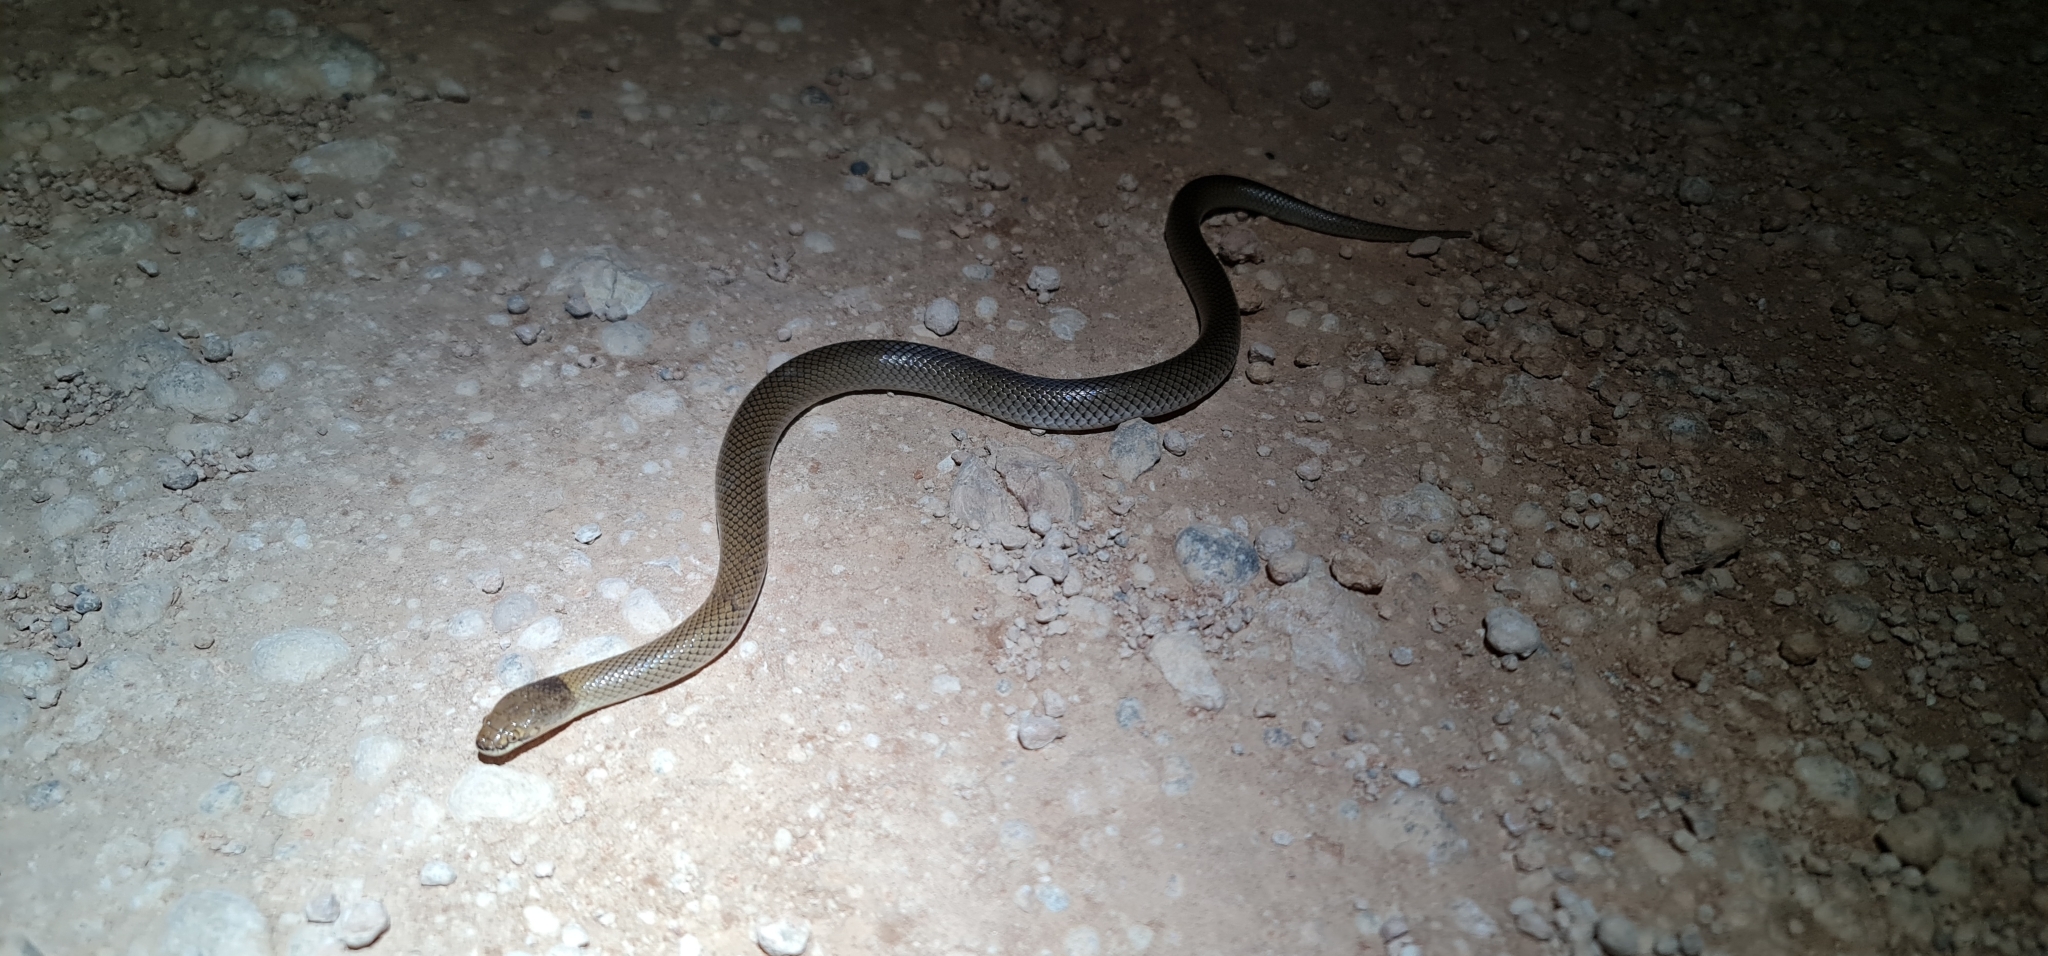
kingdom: Animalia
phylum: Chordata
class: Squamata
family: Elapidae
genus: Suta
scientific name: Suta suta
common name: Curl snake
